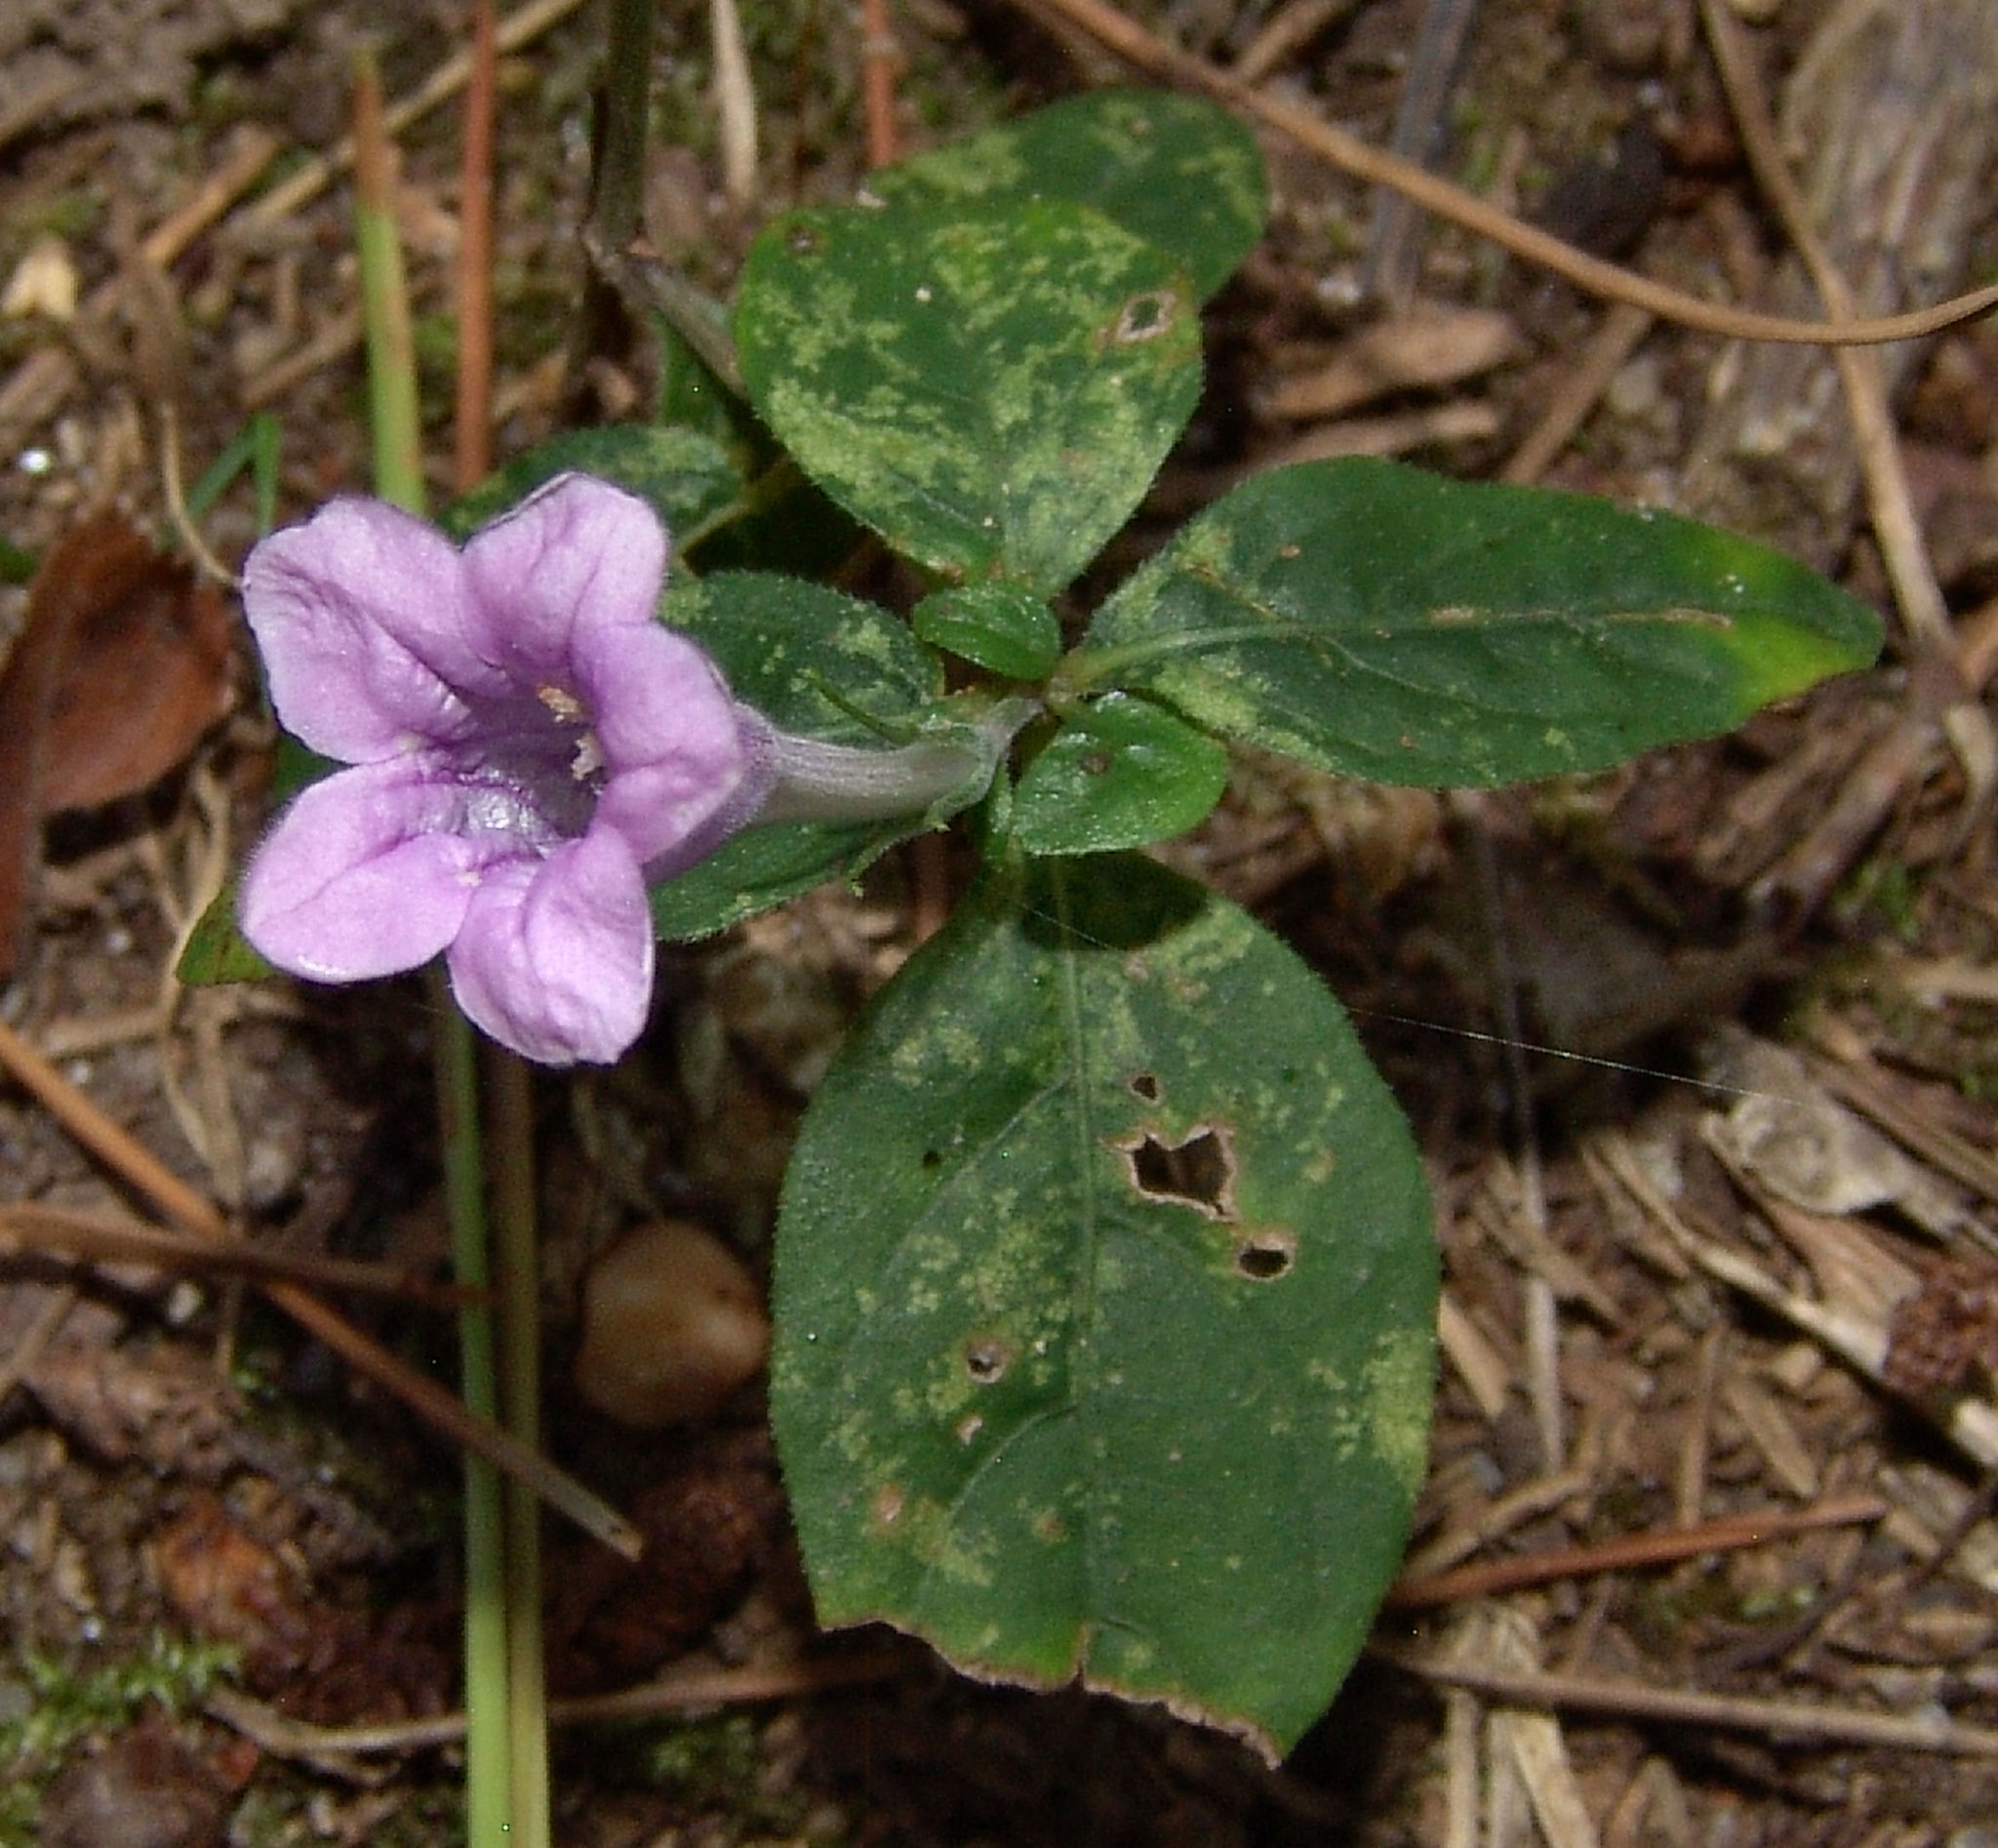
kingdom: Plantae
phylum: Tracheophyta
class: Magnoliopsida
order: Lamiales
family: Acanthaceae
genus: Ruellia
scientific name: Ruellia pedunculata
